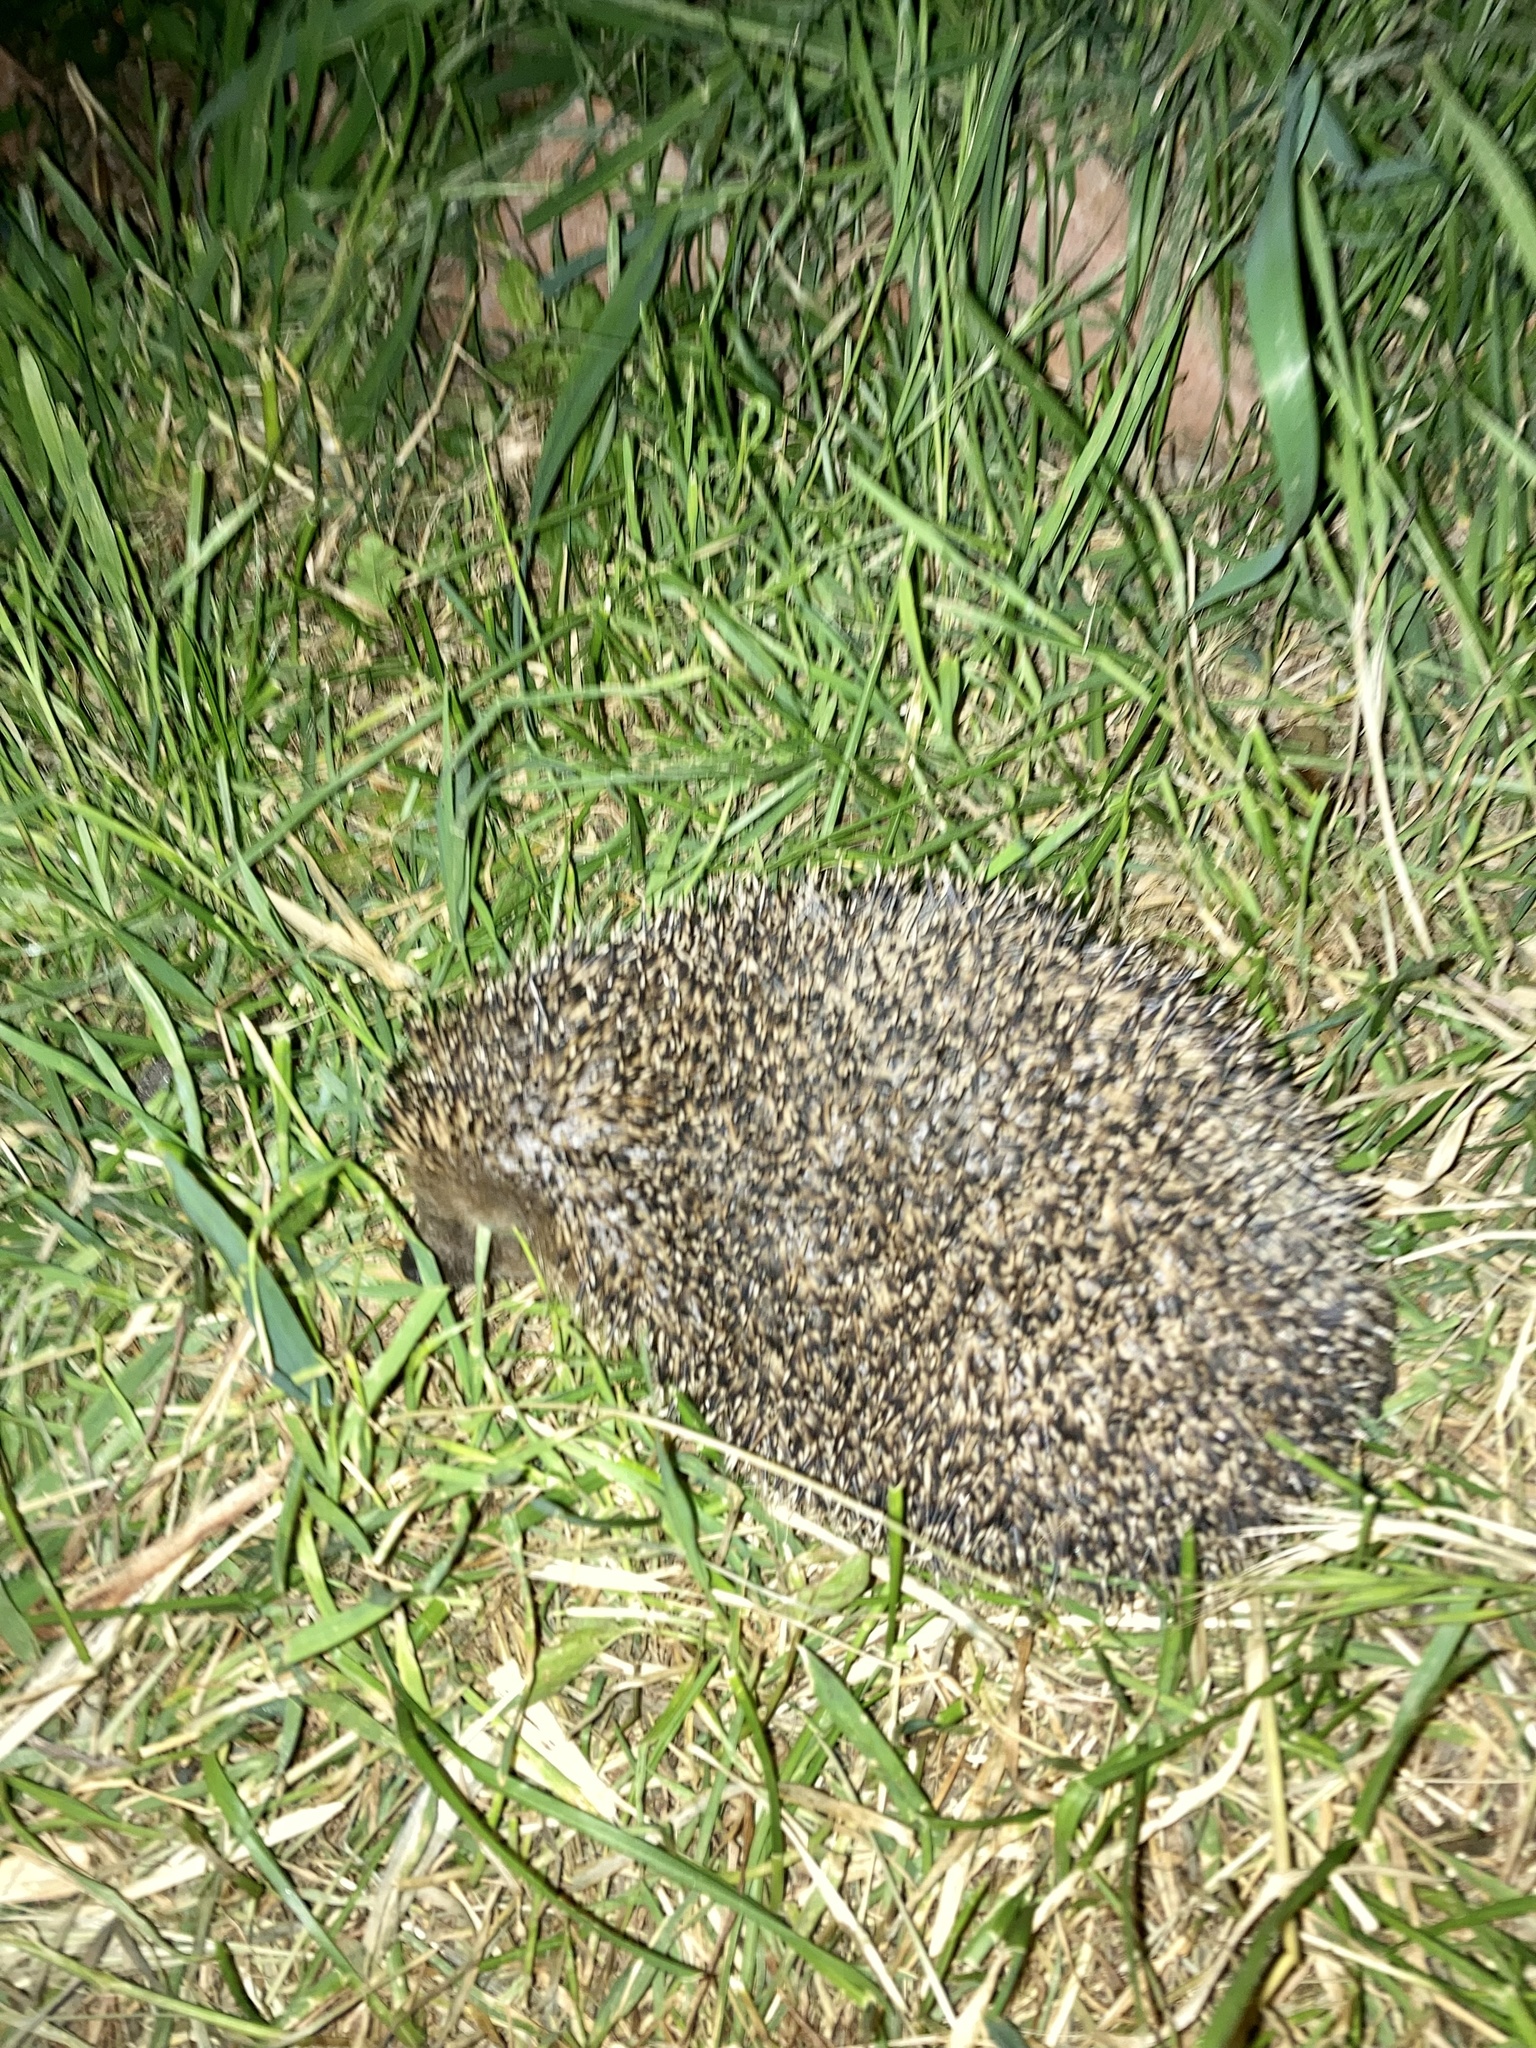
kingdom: Animalia
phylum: Chordata
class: Mammalia
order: Erinaceomorpha
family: Erinaceidae
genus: Erinaceus
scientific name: Erinaceus europaeus
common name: West european hedgehog
